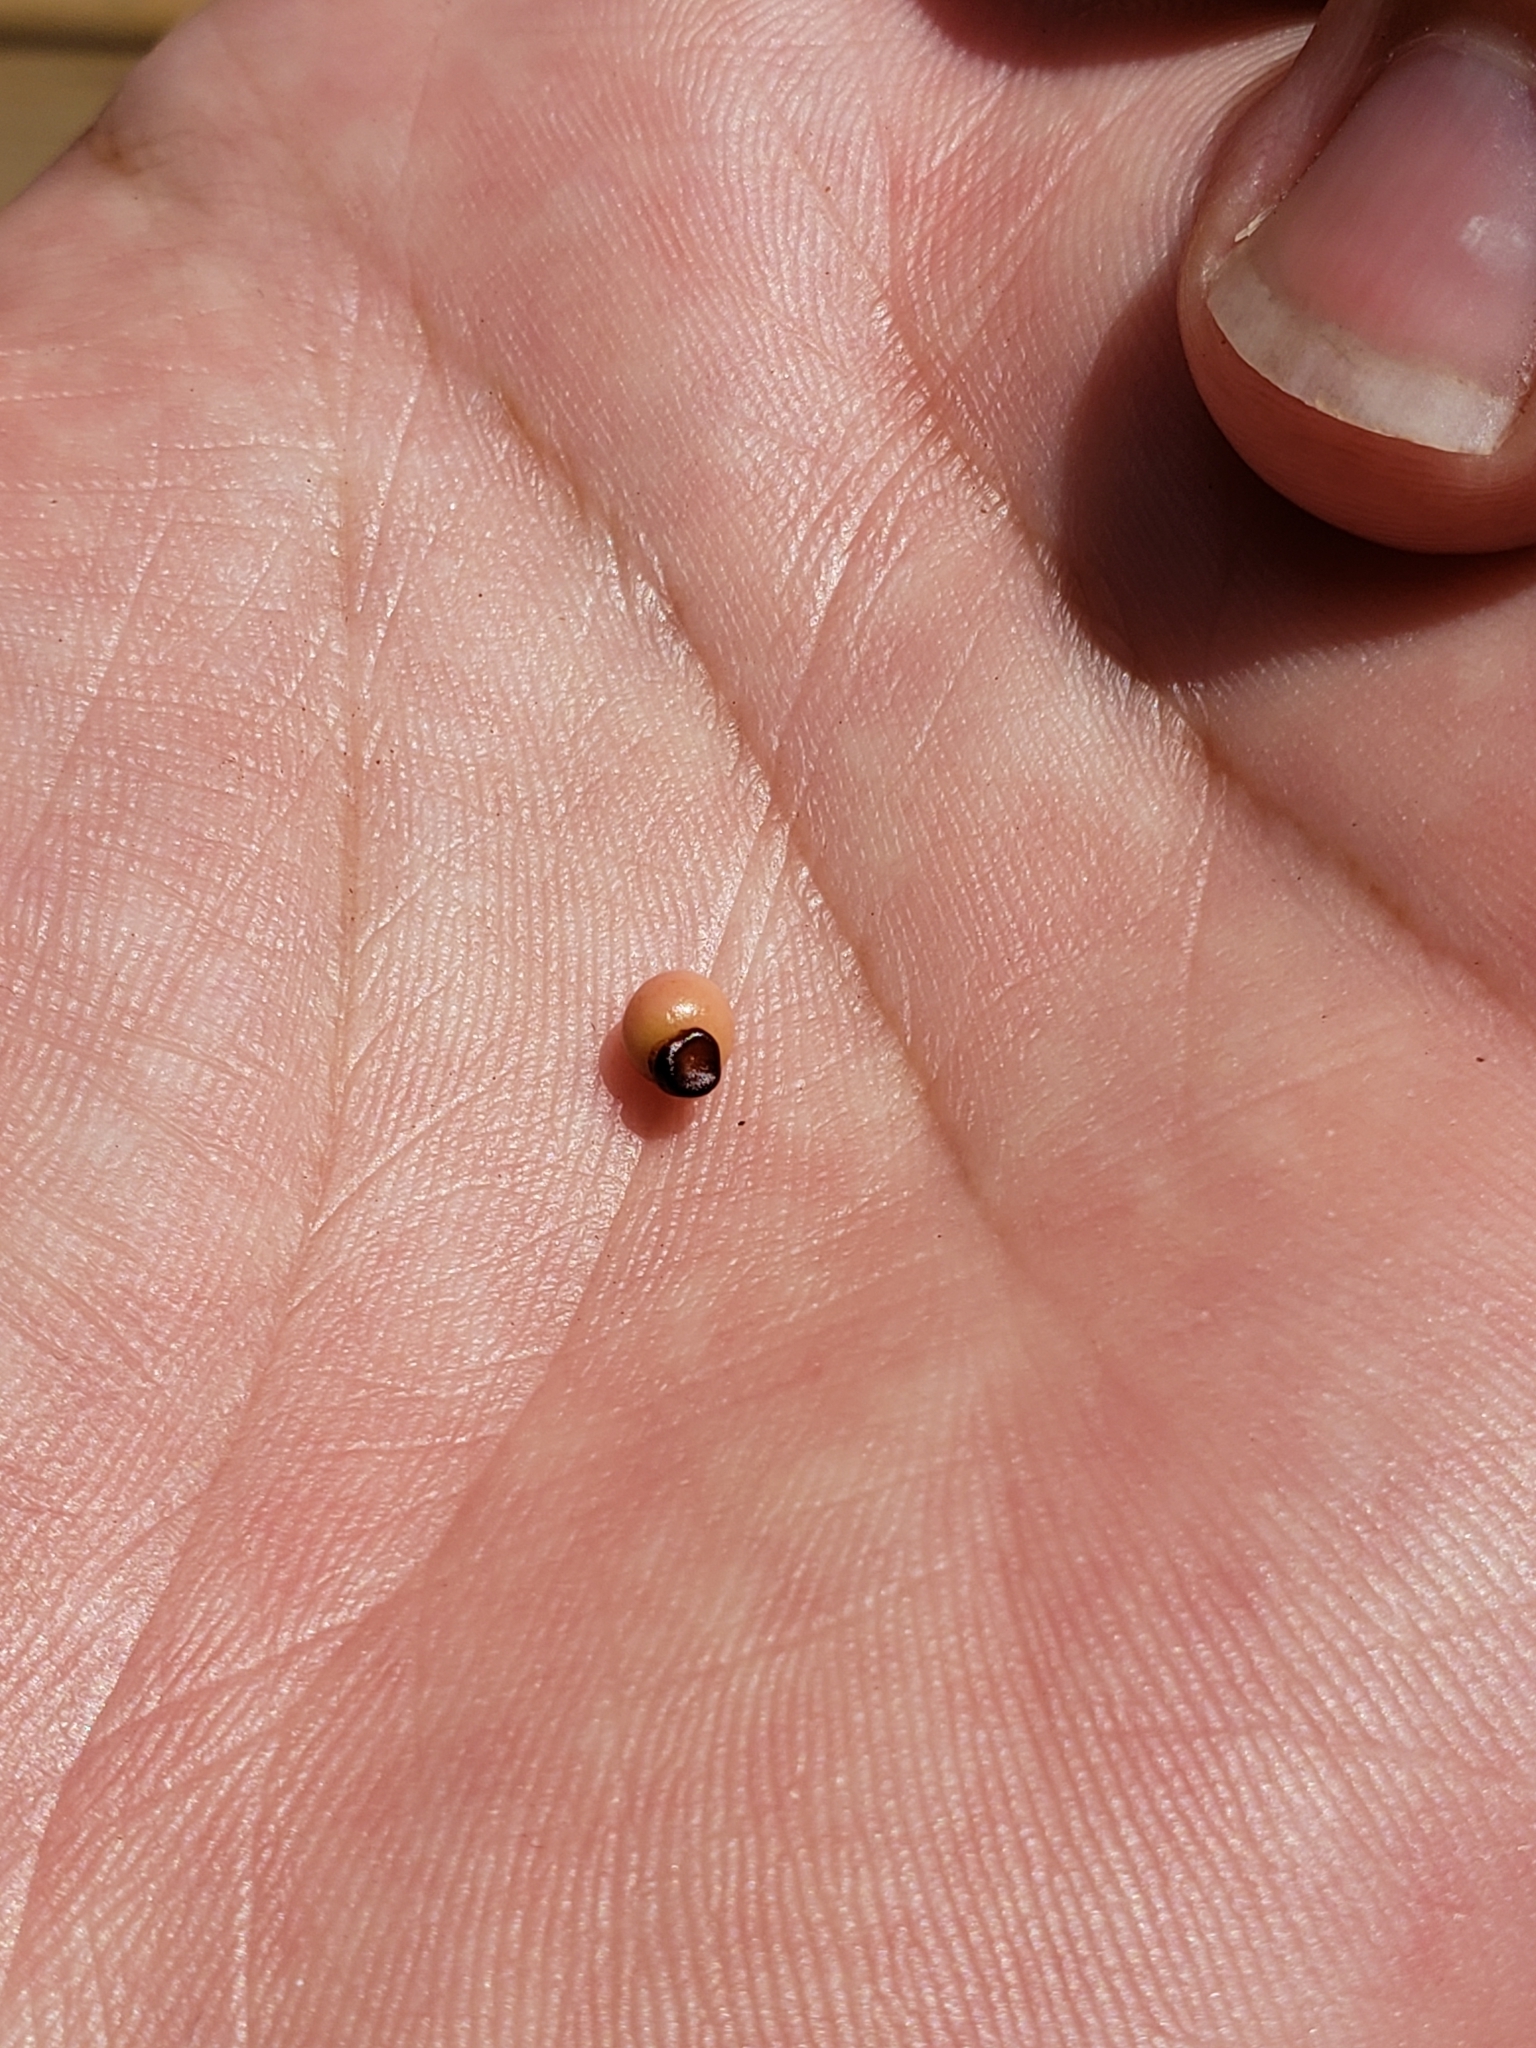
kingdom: Animalia
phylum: Arthropoda
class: Insecta
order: Hymenoptera
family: Cynipidae
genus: Kokkocynips
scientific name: Kokkocynips rileyi
